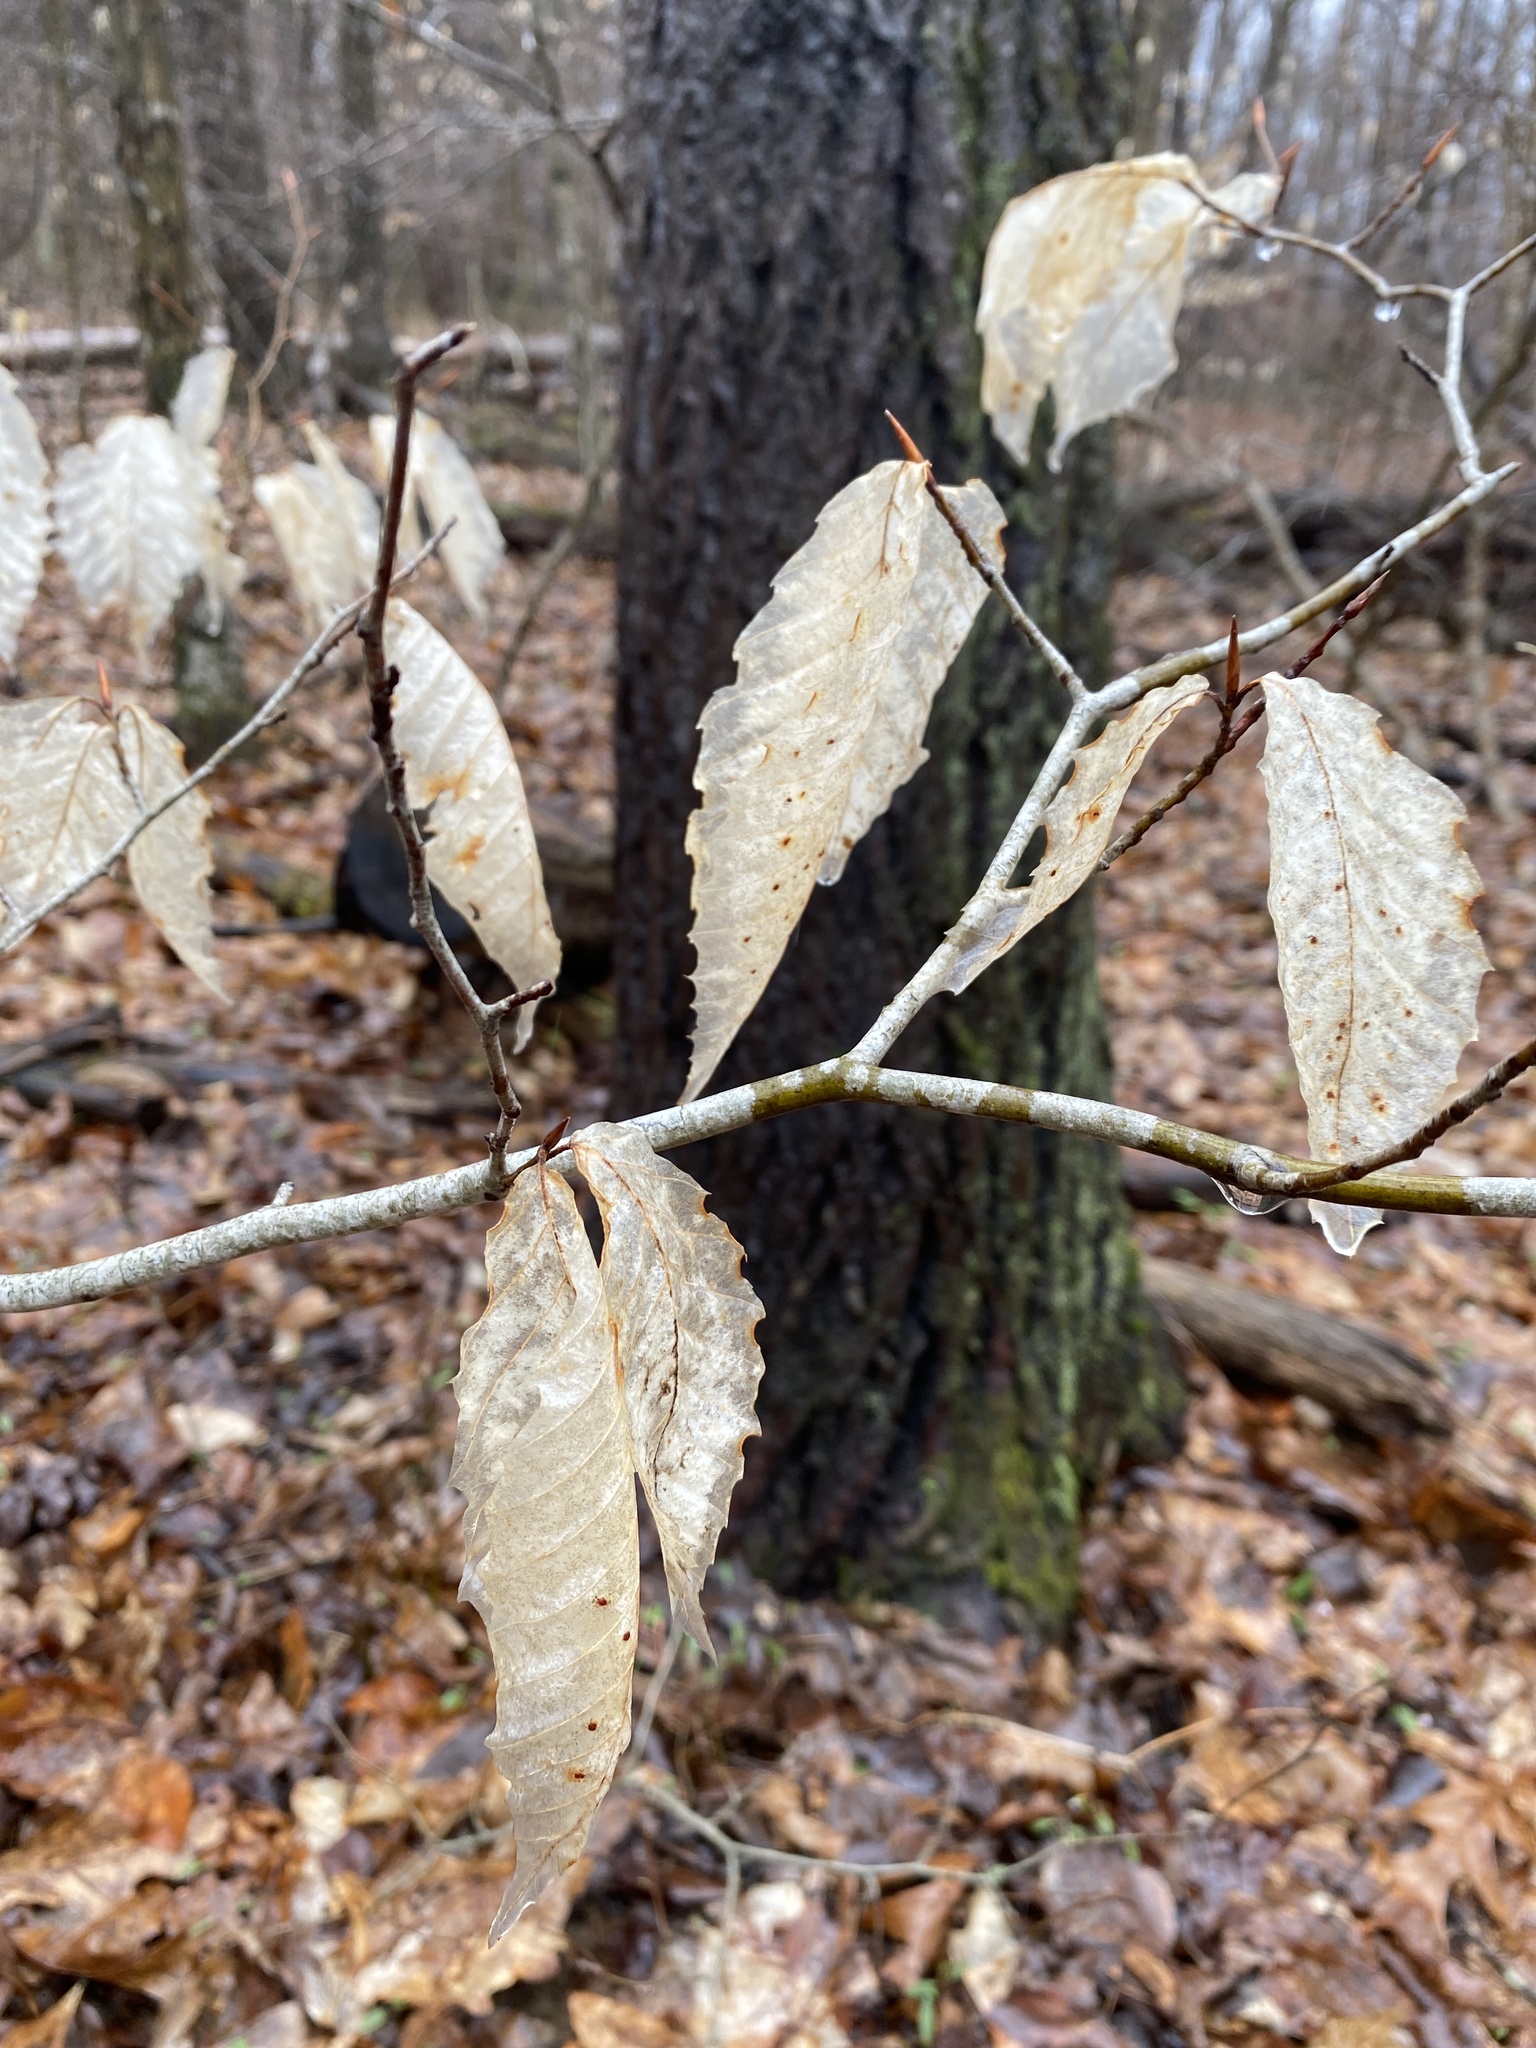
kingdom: Plantae
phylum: Tracheophyta
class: Magnoliopsida
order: Fagales
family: Fagaceae
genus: Fagus
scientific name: Fagus grandifolia
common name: American beech
